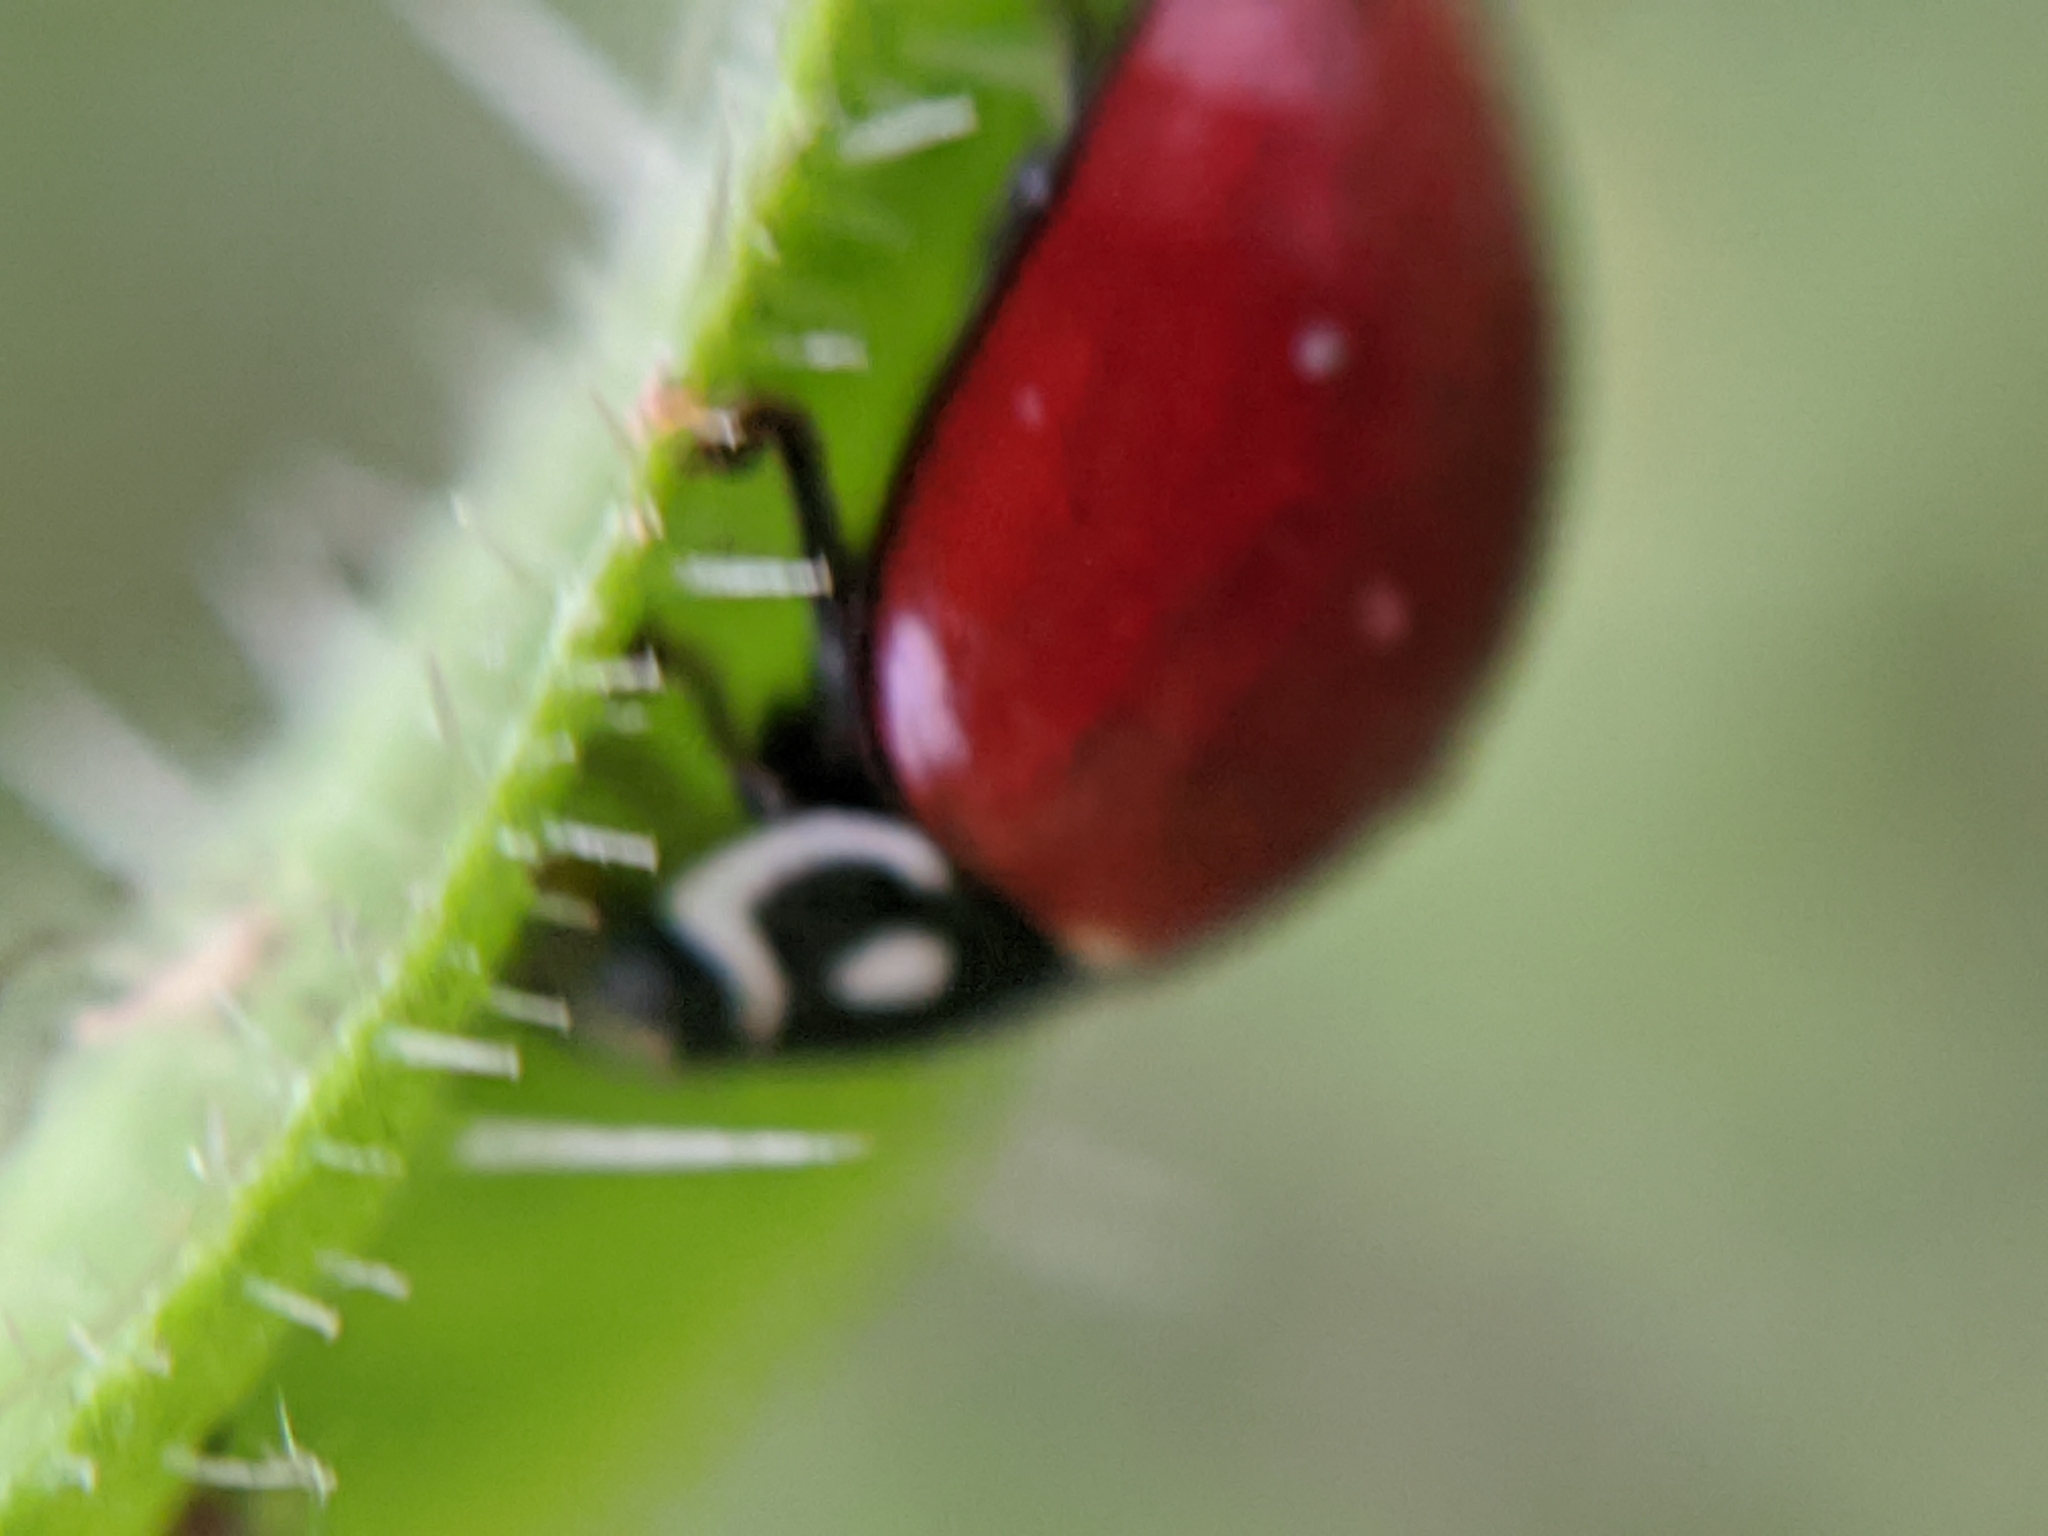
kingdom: Animalia
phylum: Arthropoda
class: Insecta
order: Coleoptera
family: Coccinellidae
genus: Cycloneda
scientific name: Cycloneda sanguinea
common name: Ladybird beetle
